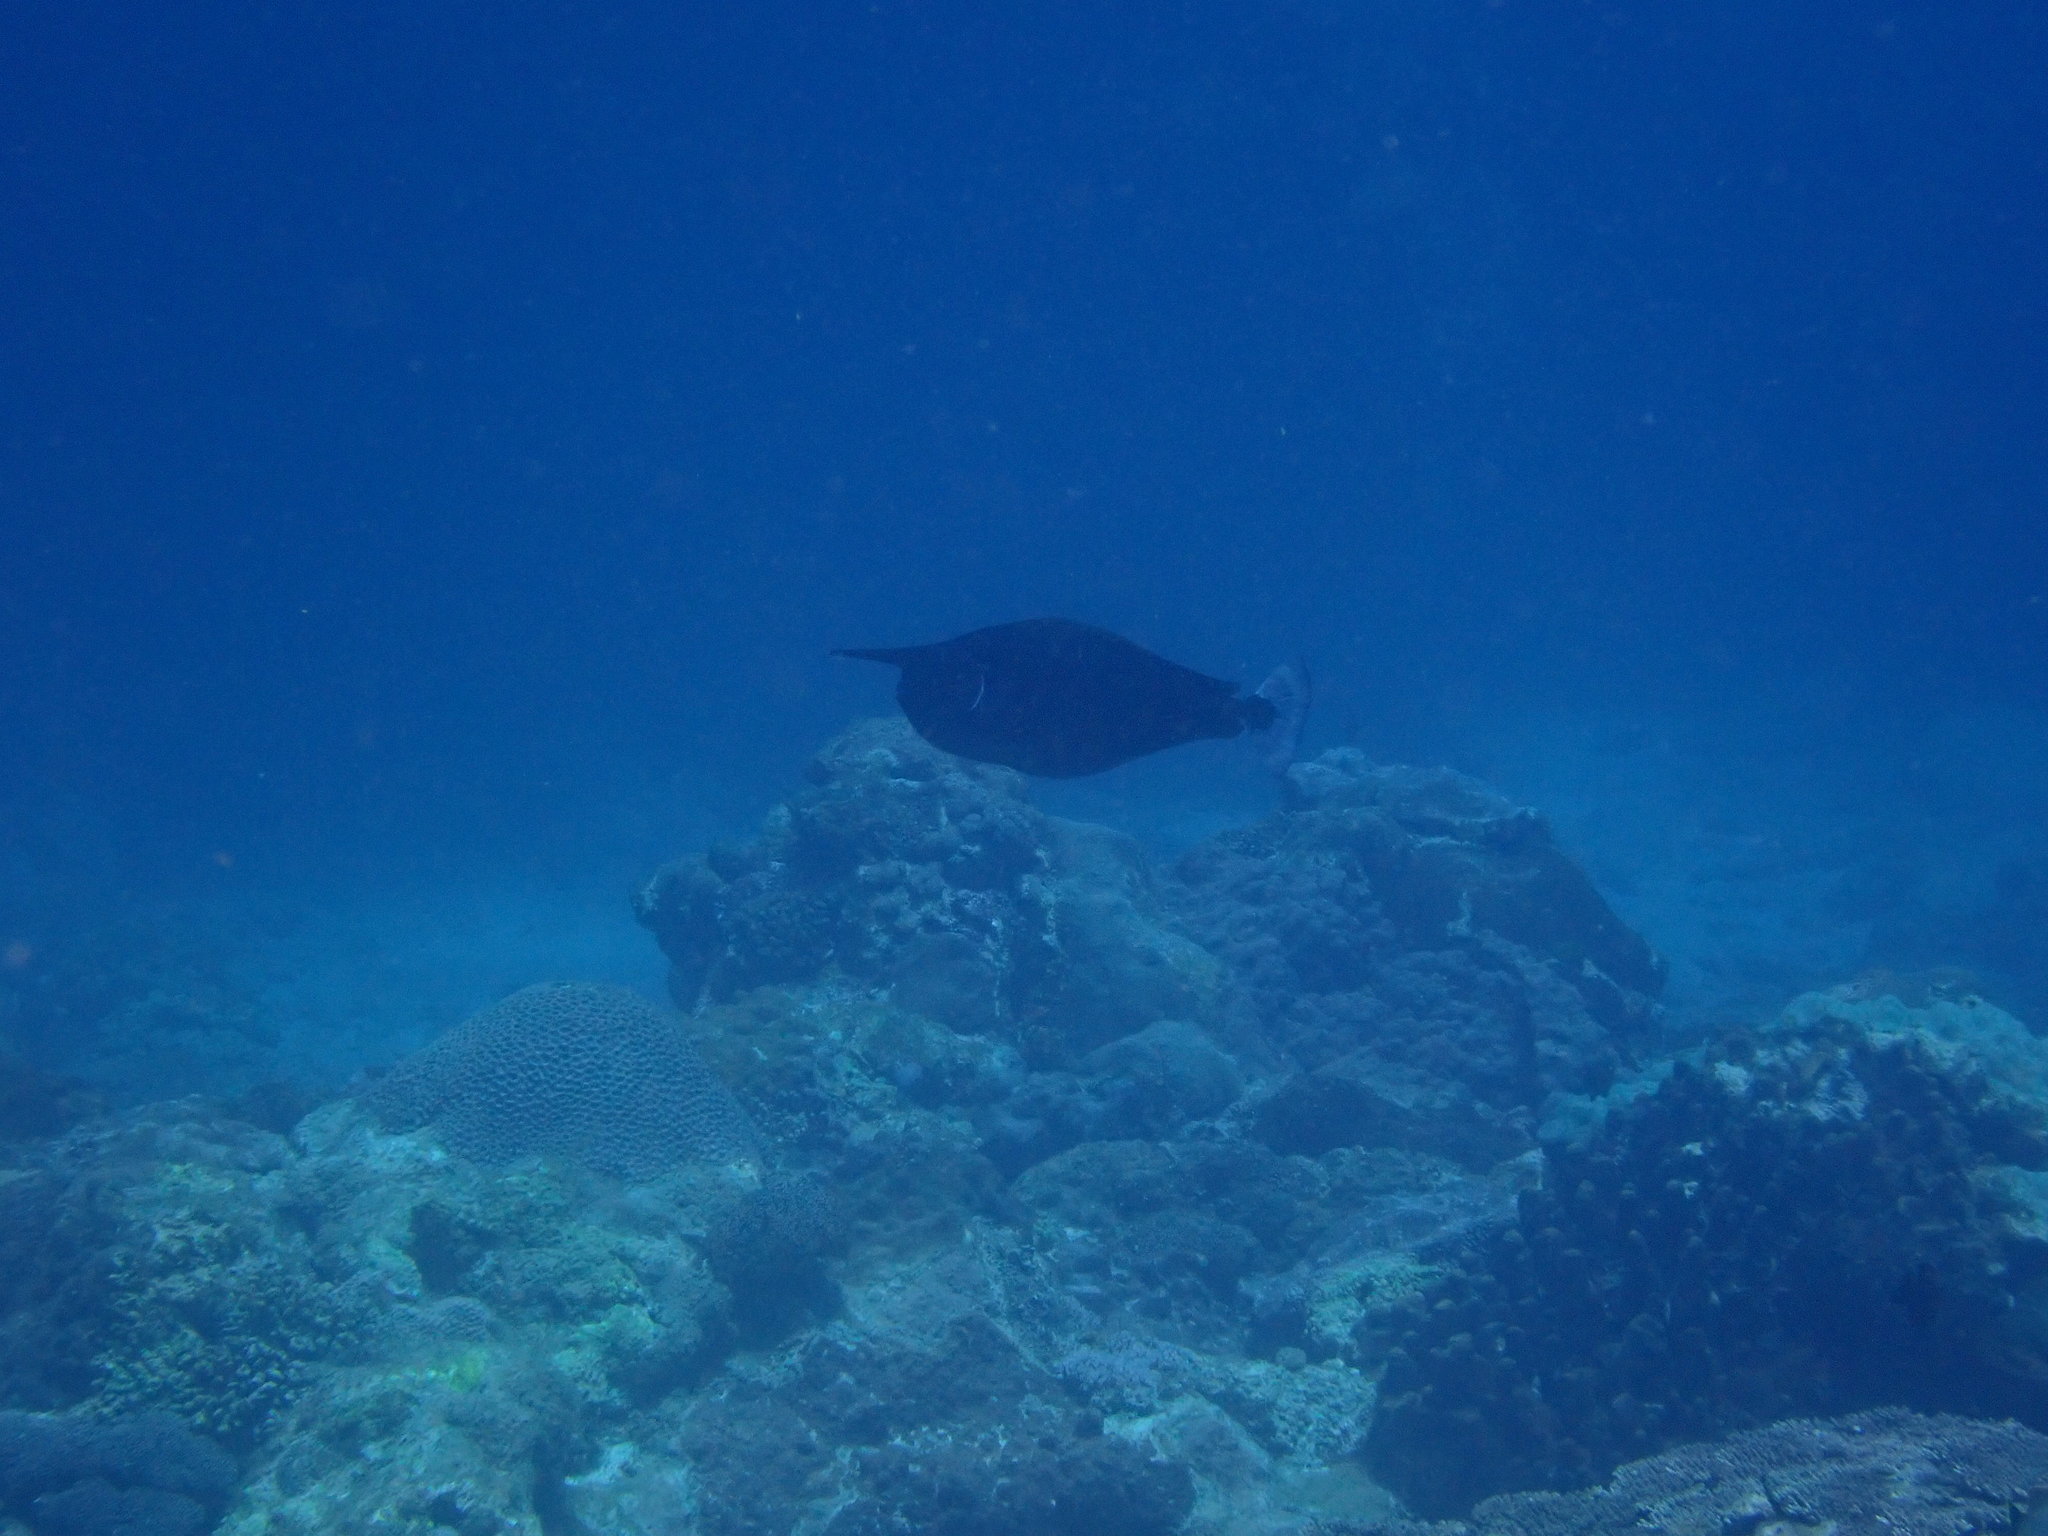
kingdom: Animalia
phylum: Chordata
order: Perciformes
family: Acanthuridae
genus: Naso
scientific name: Naso brevirostris
